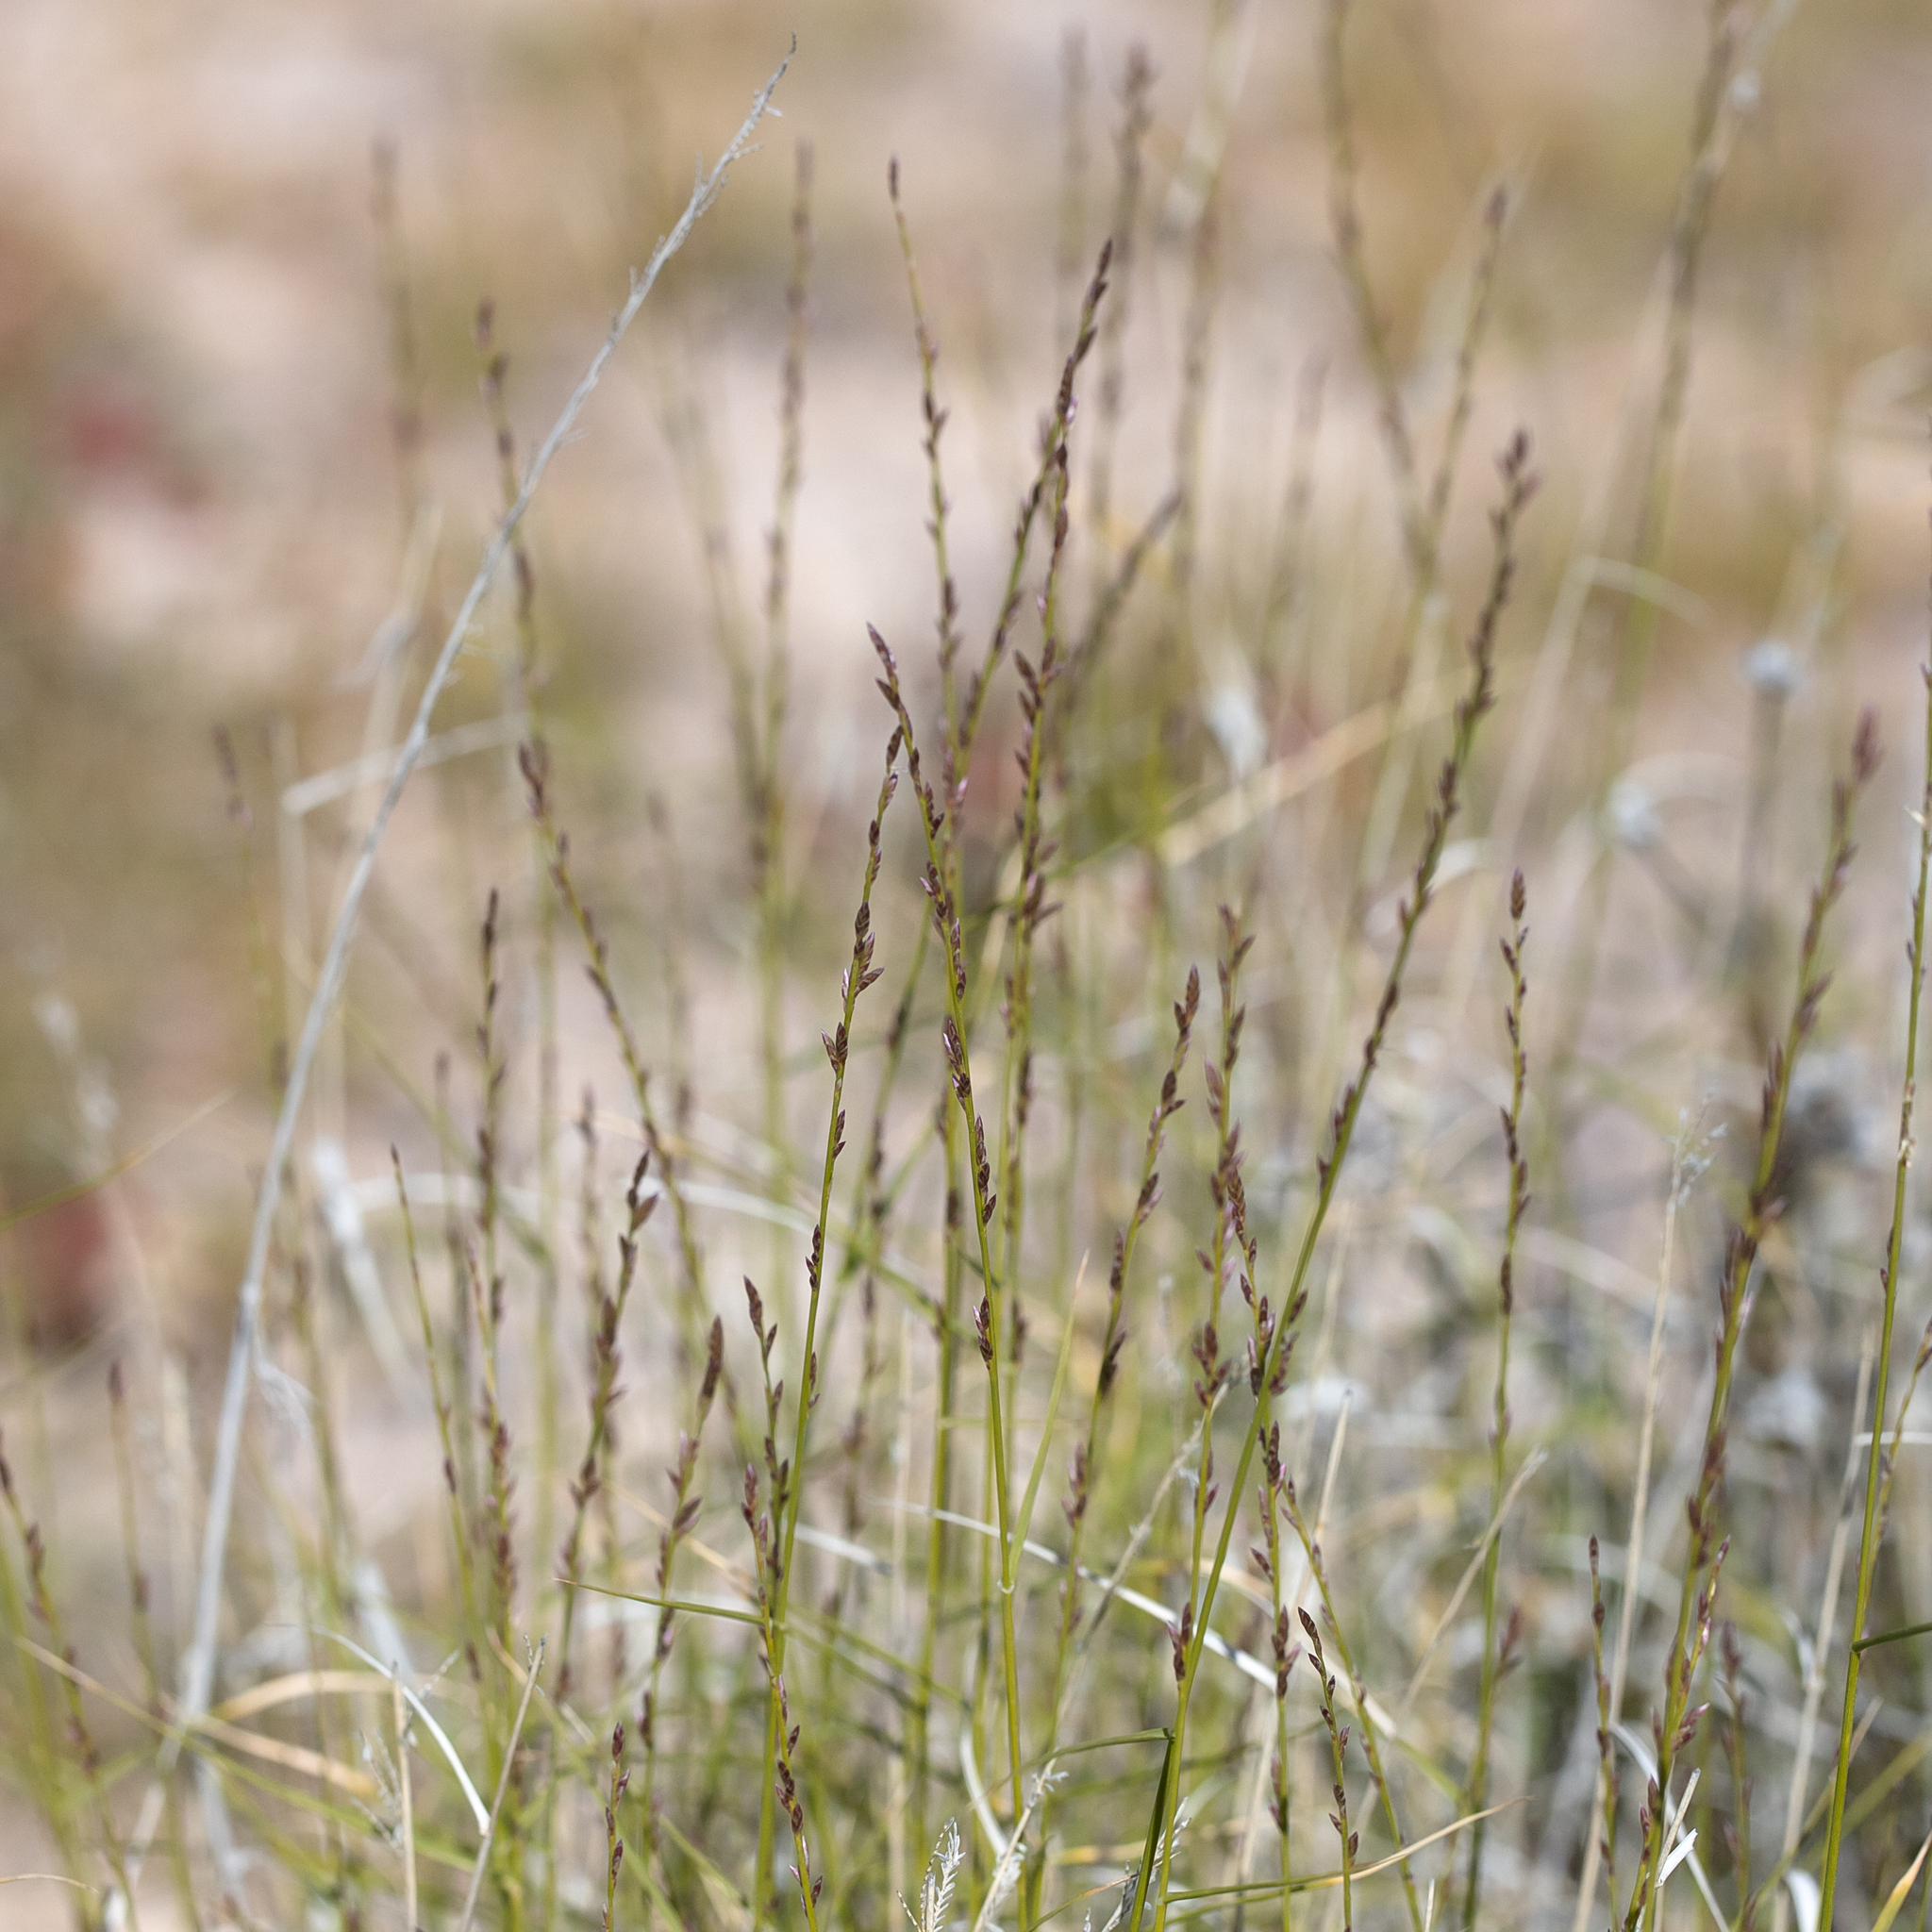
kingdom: Plantae
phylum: Tracheophyta
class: Liliopsida
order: Poales
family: Poaceae
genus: Eragrostis
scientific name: Eragrostis xerophila
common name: Wire wandarrie grass
